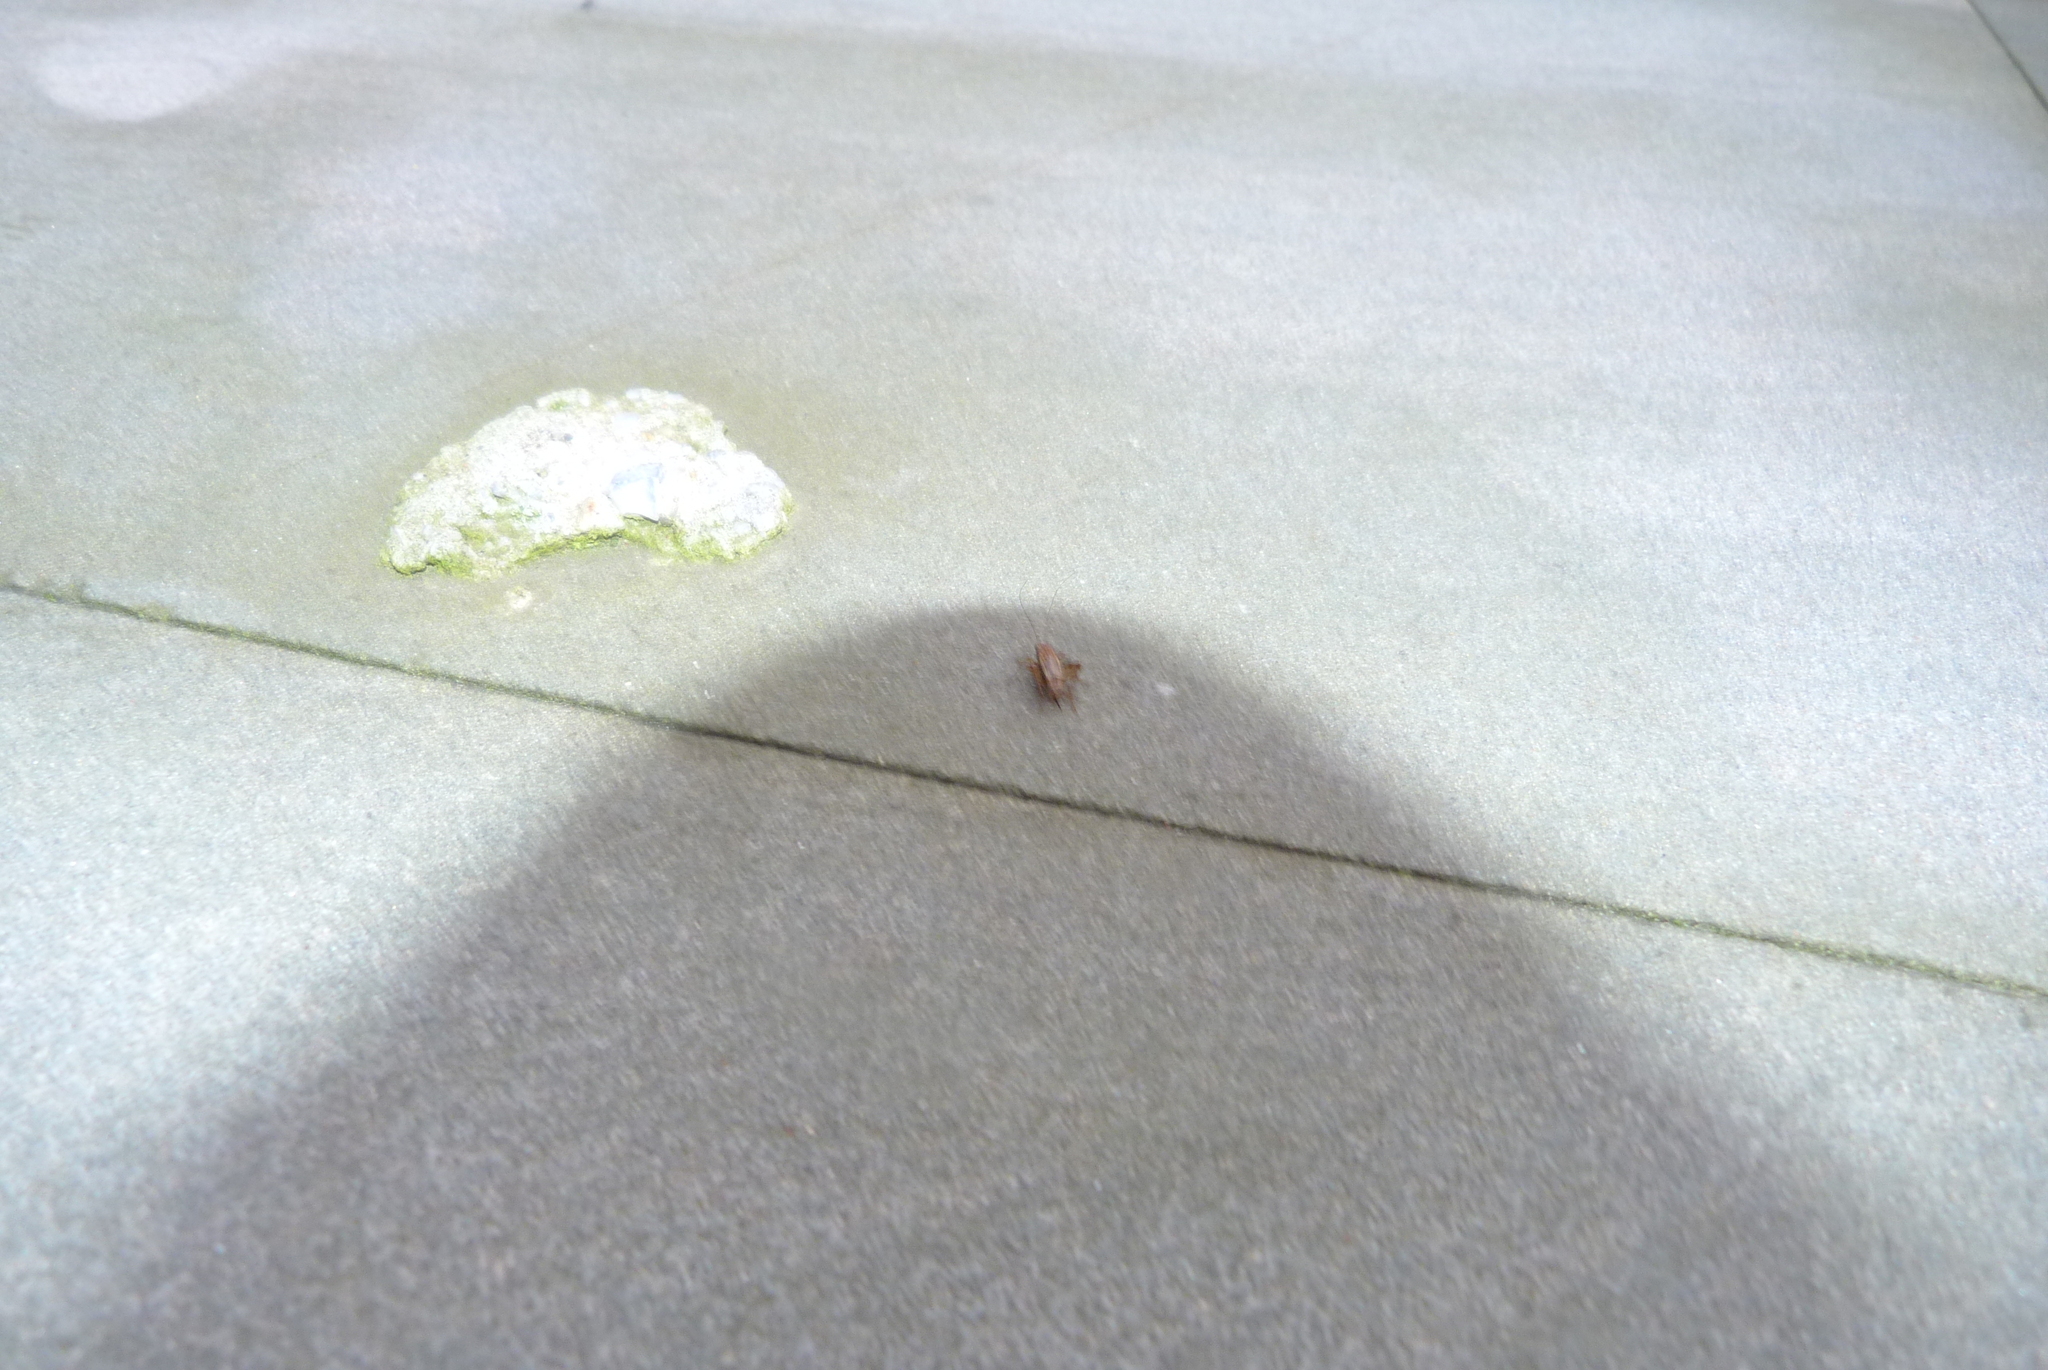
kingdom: Animalia
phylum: Arthropoda
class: Insecta
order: Orthoptera
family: Trigonidiidae
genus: Polionemobius
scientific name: Polionemobius taprobanense
